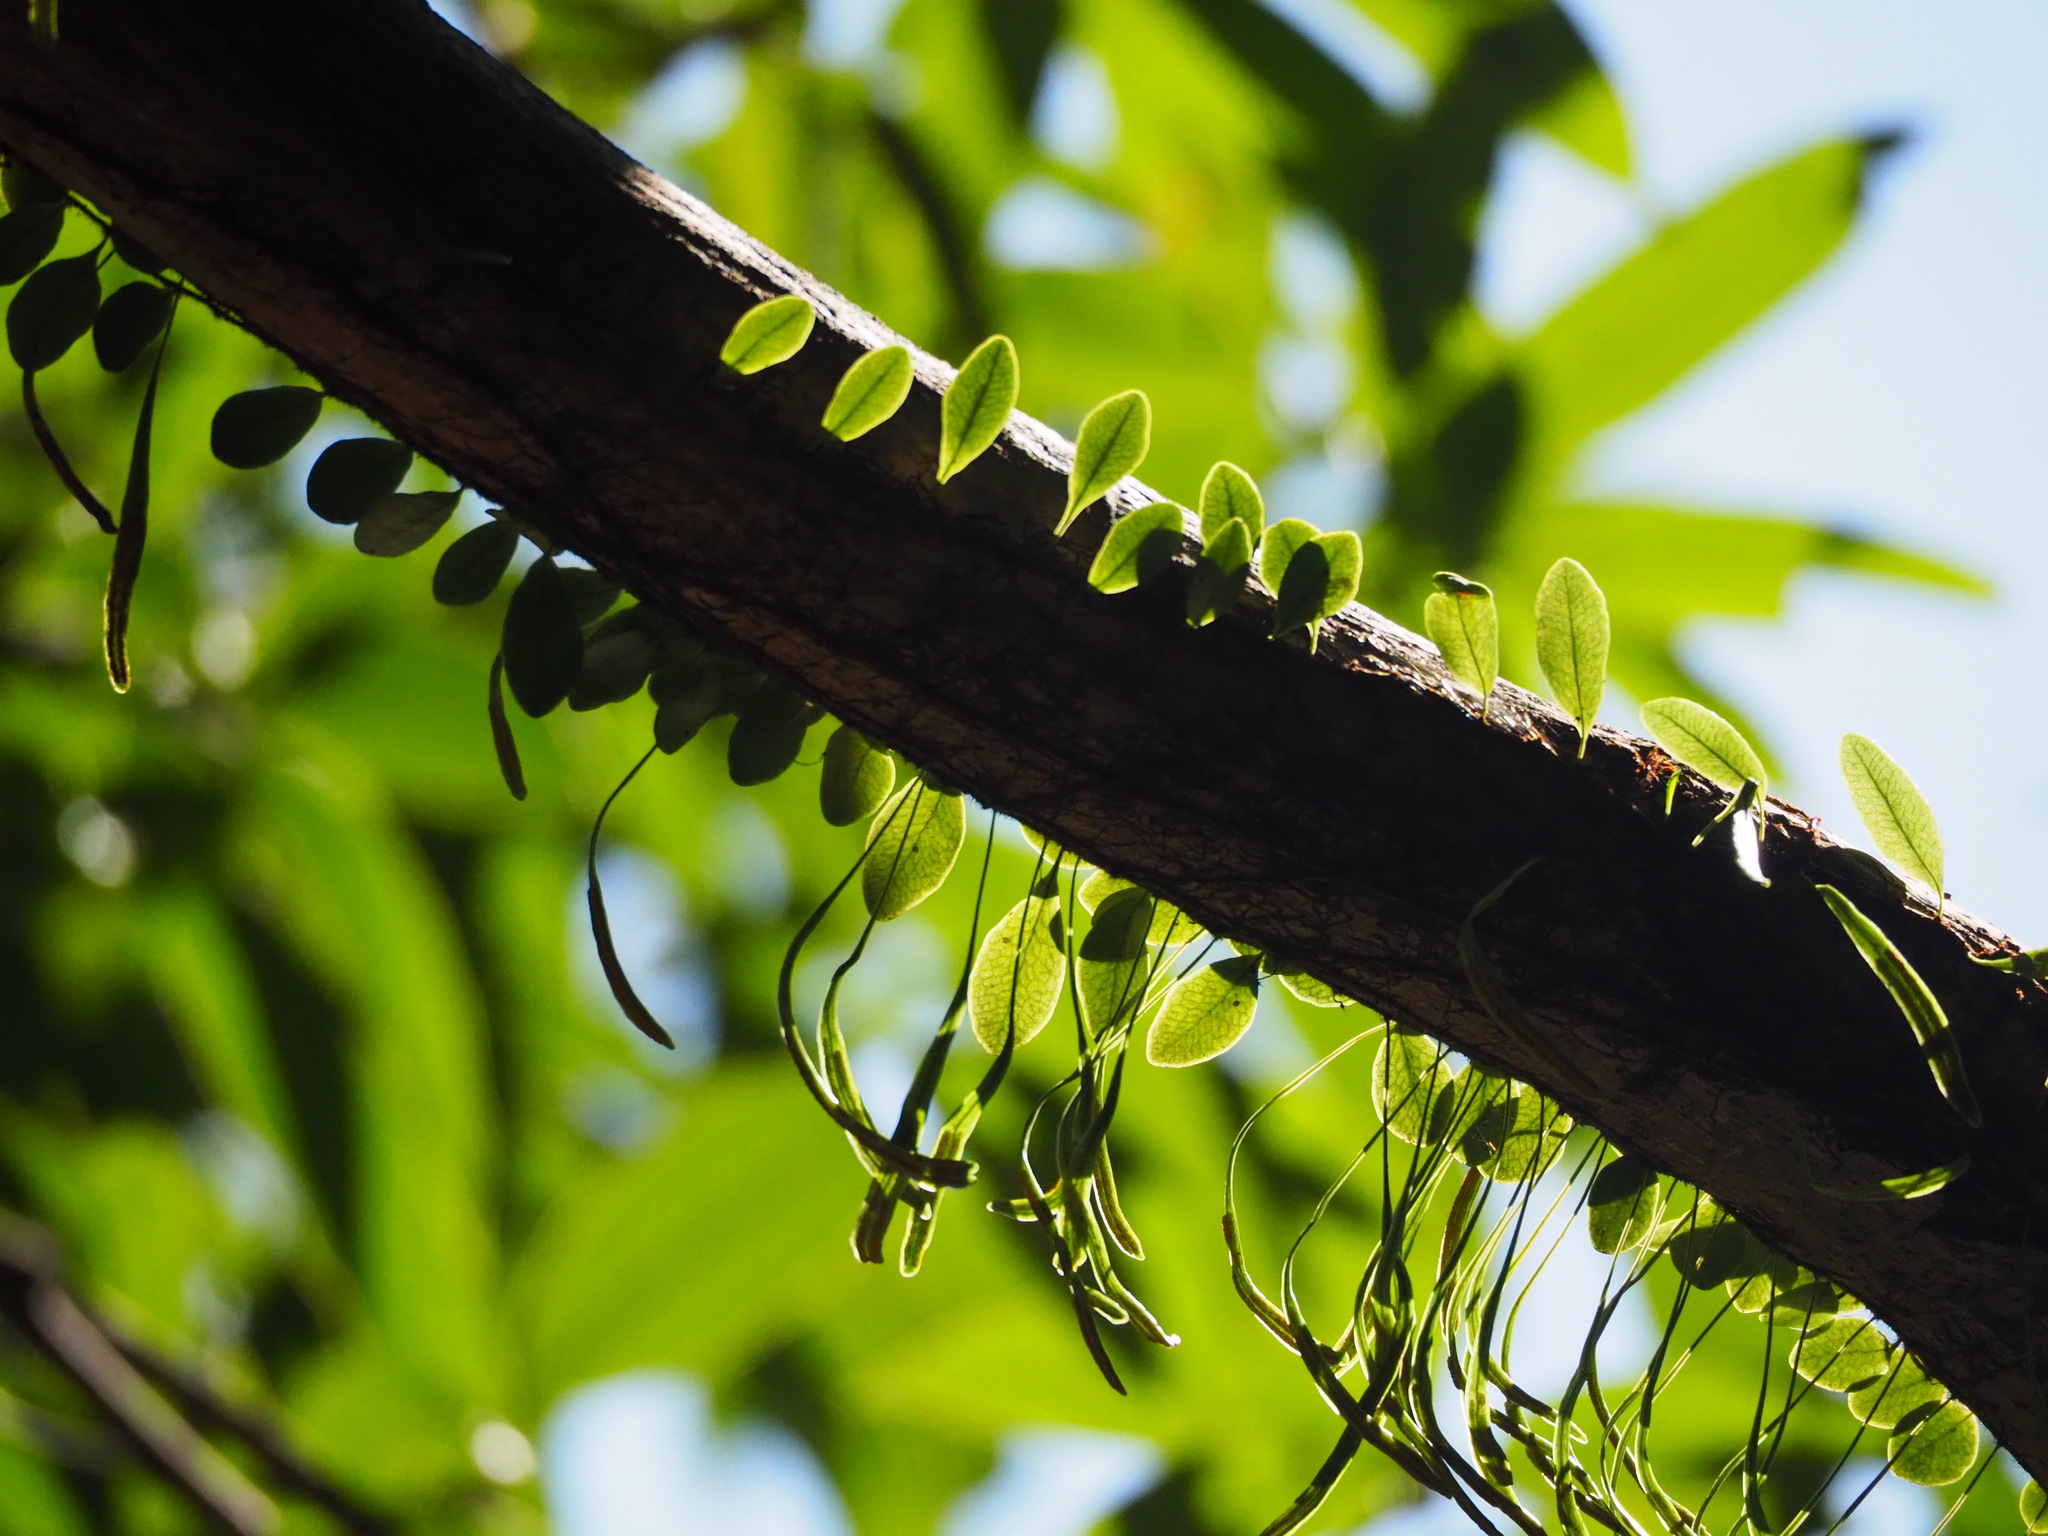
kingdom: Plantae
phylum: Tracheophyta
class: Polypodiopsida
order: Polypodiales
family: Polypodiaceae
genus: Lepisorus
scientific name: Lepisorus microphyllus
